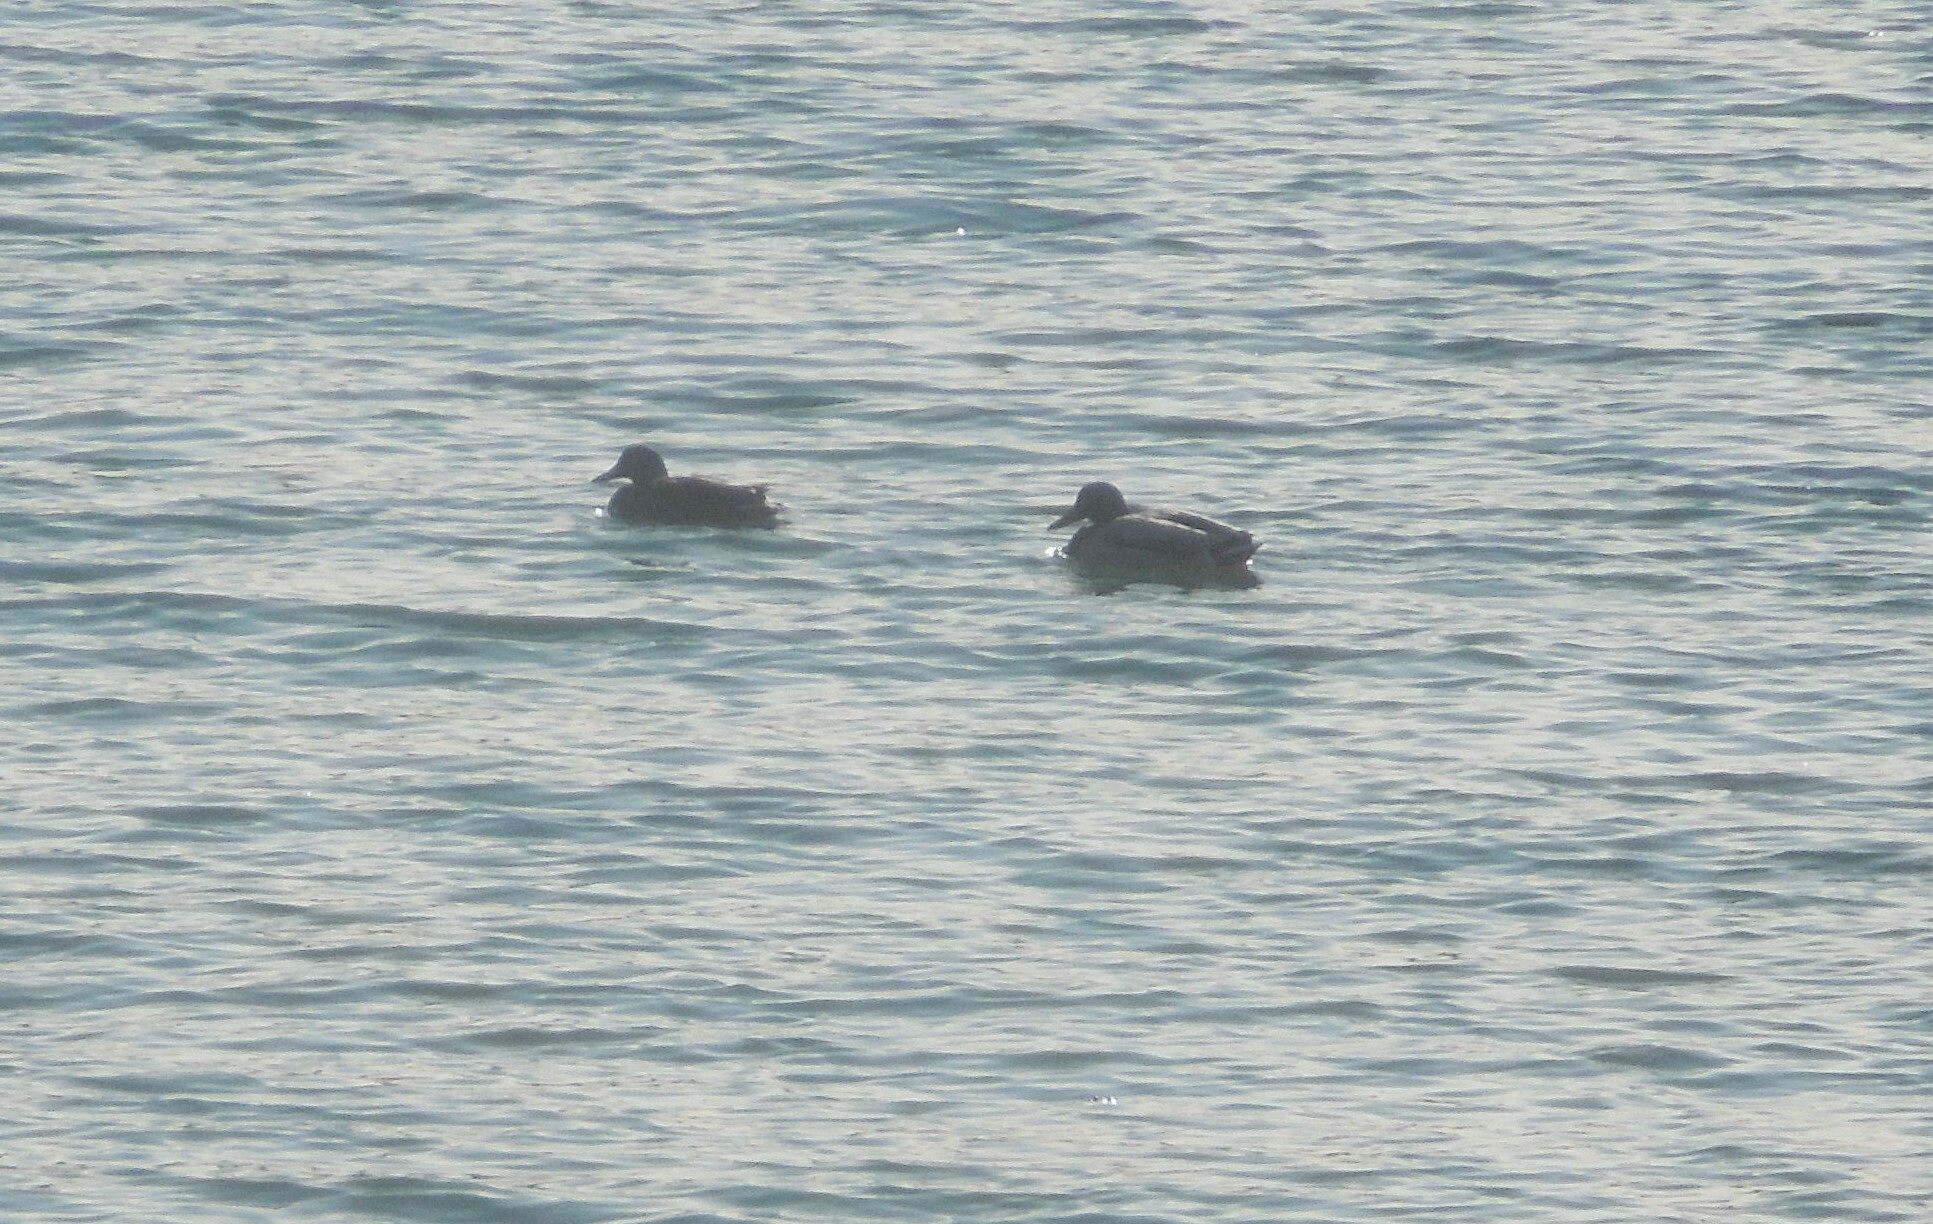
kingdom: Animalia
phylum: Chordata
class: Aves
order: Anseriformes
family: Anatidae
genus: Anas
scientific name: Anas platyrhynchos
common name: Mallard
